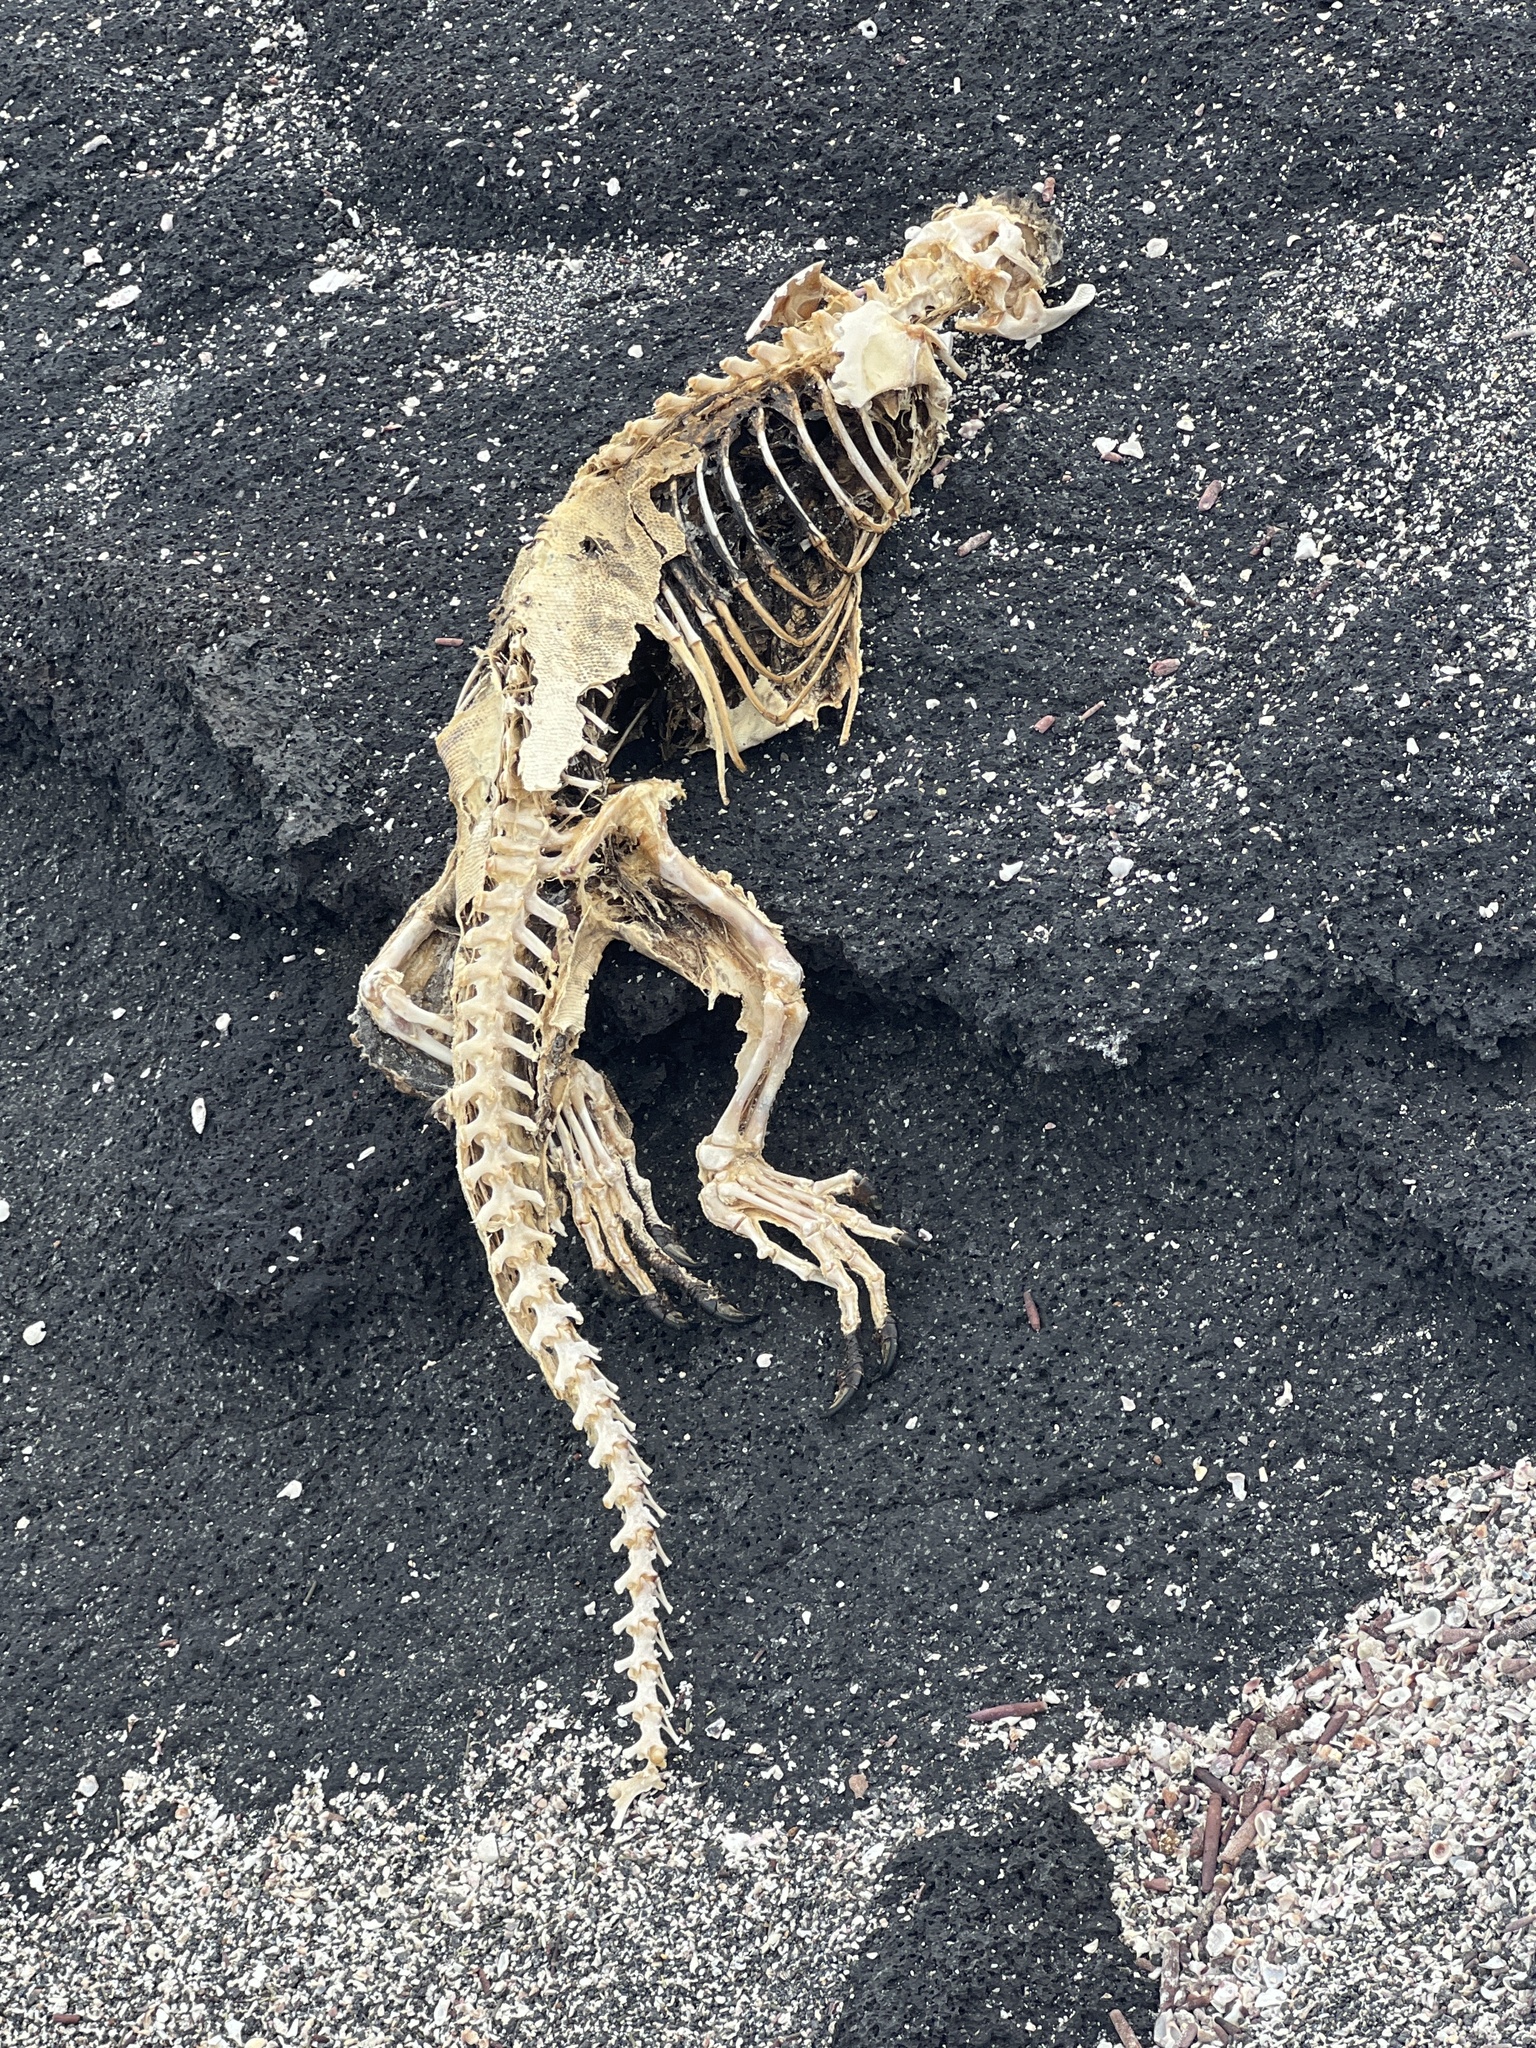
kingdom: Animalia
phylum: Chordata
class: Squamata
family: Iguanidae
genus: Amblyrhynchus
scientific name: Amblyrhynchus cristatus
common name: Marine iguana
